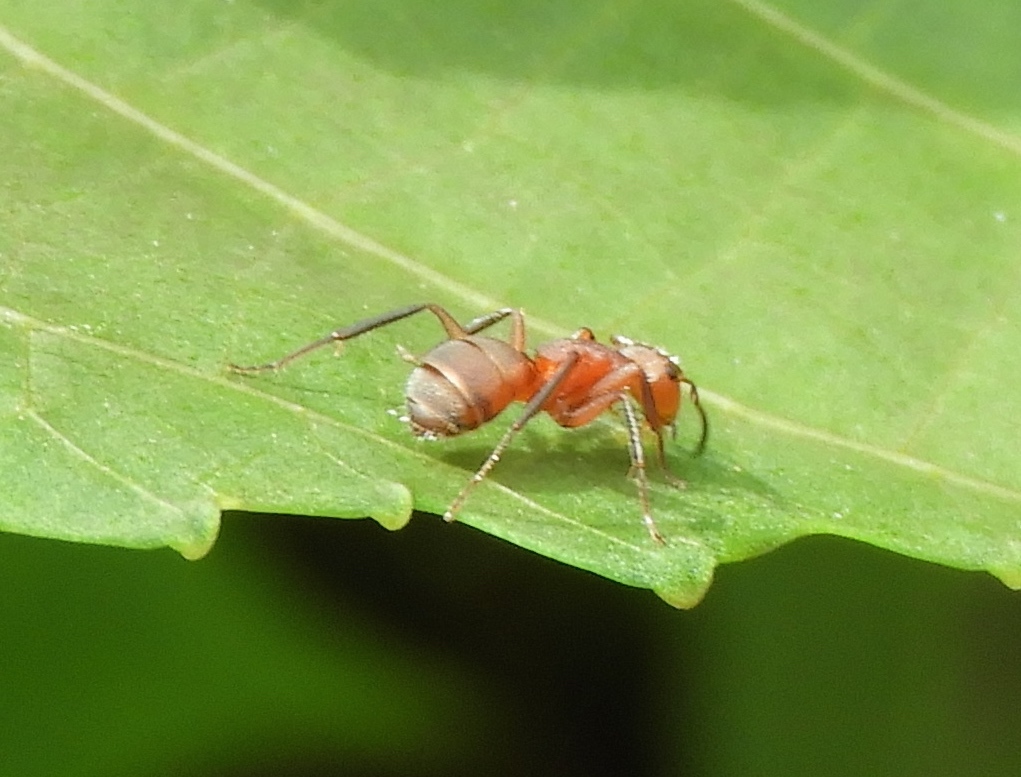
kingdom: Animalia
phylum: Arthropoda
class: Insecta
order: Hymenoptera
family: Formicidae
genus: Camponotus
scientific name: Camponotus rectangularis
